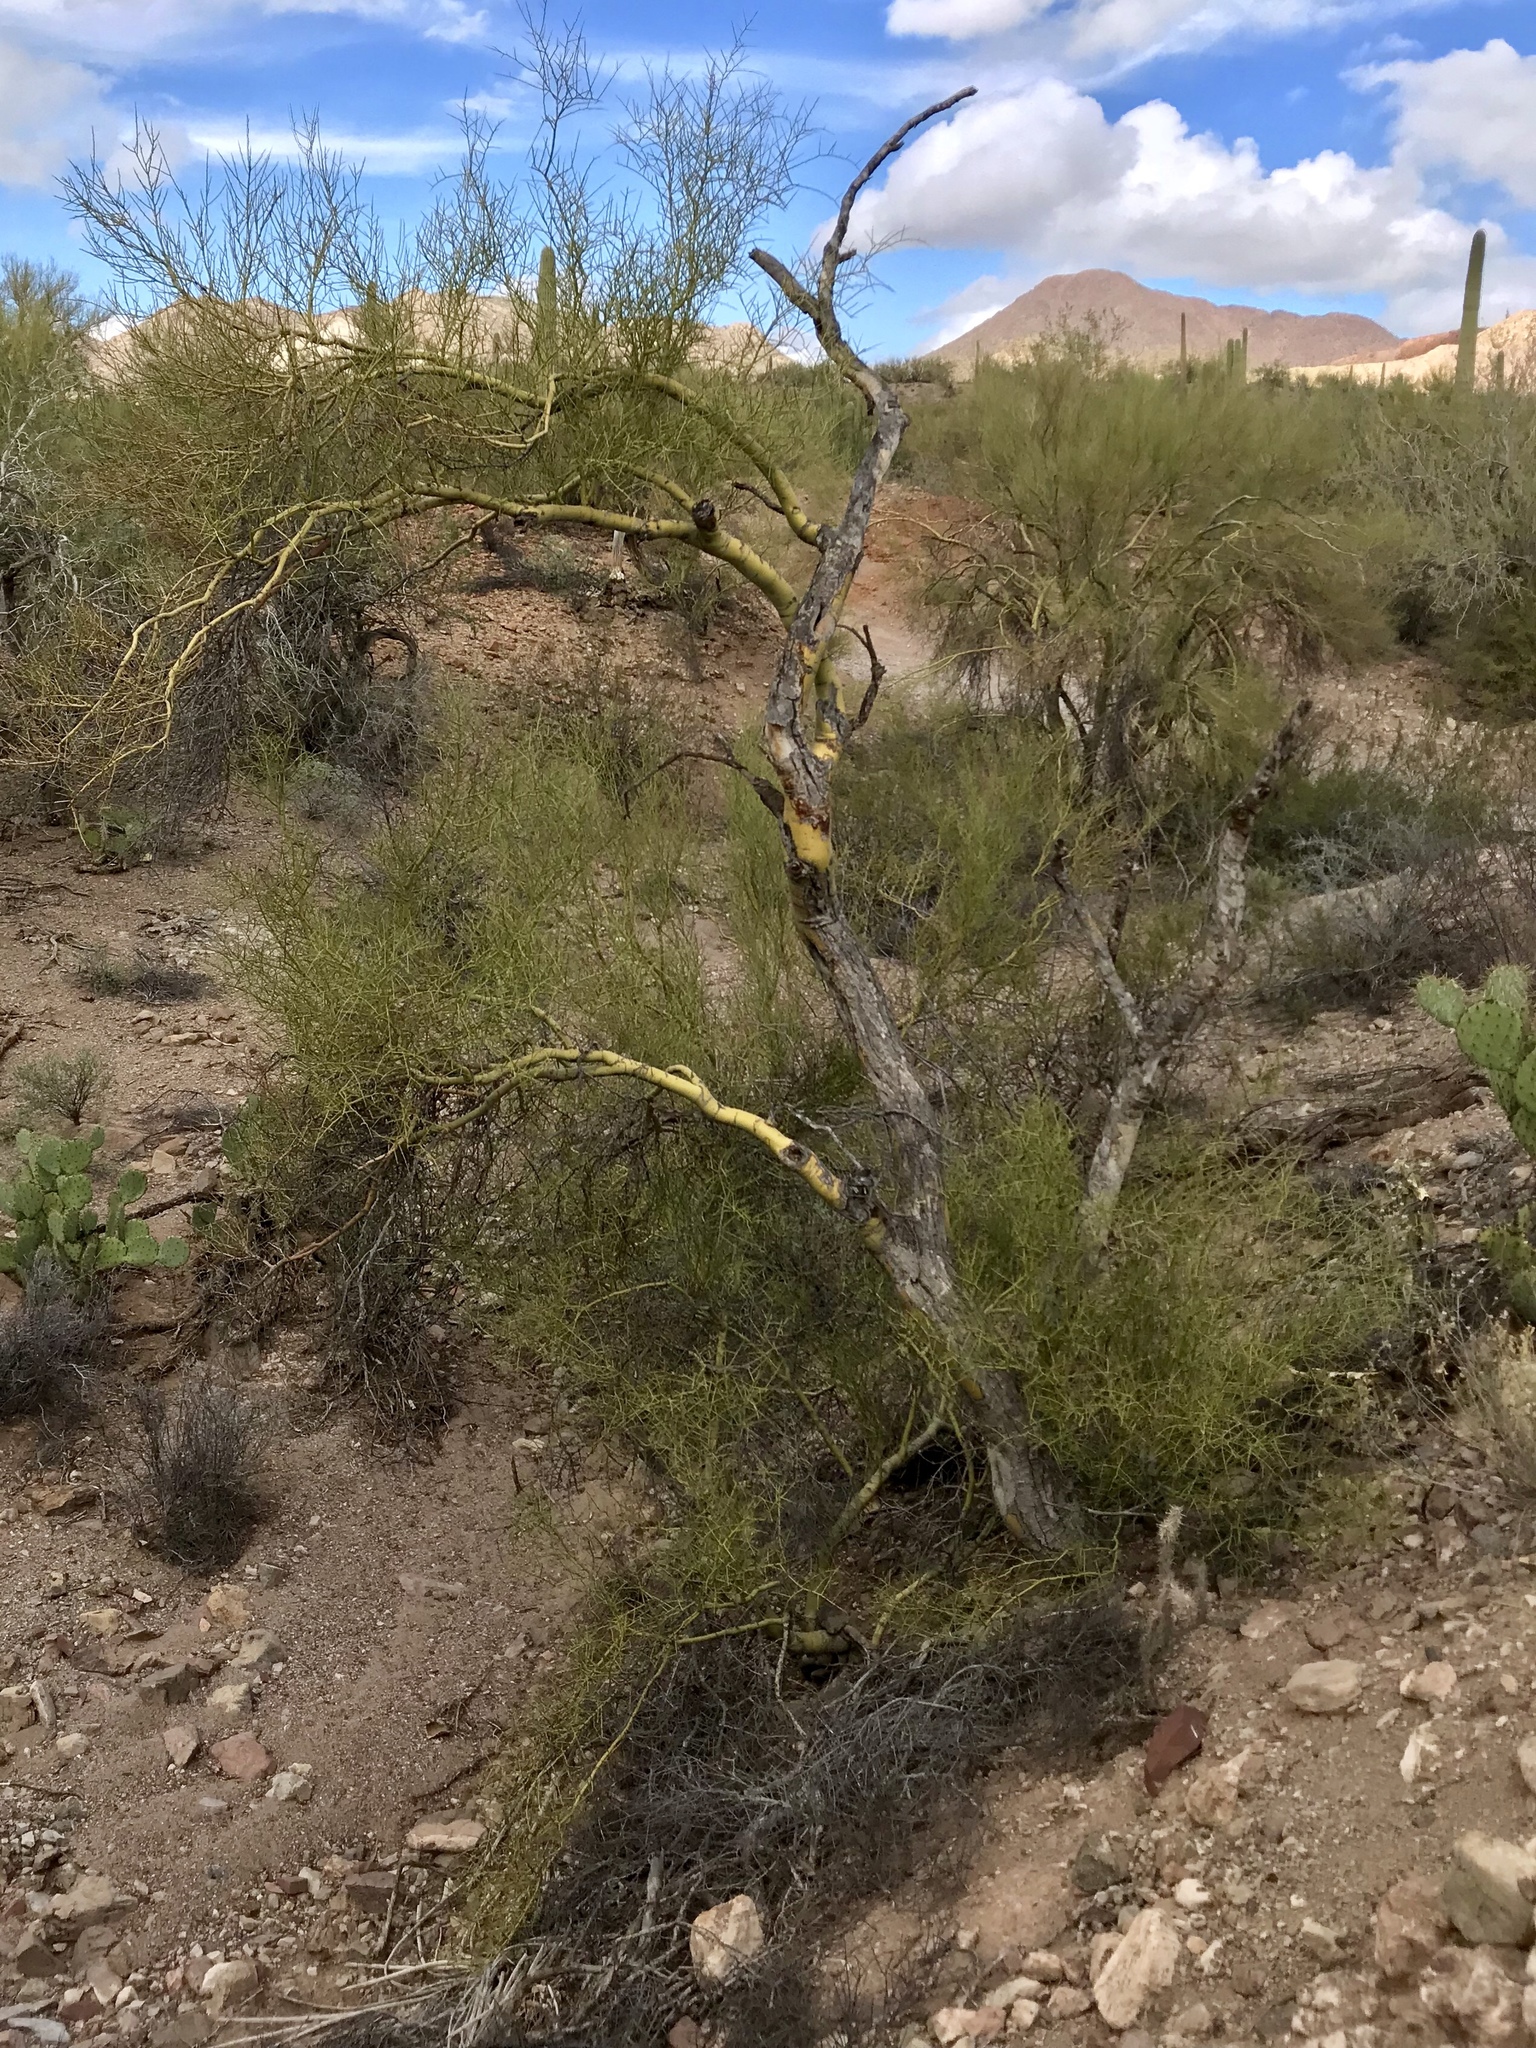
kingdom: Plantae
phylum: Tracheophyta
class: Magnoliopsida
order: Fabales
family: Fabaceae
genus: Parkinsonia
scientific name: Parkinsonia microphylla
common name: Yellow paloverde
